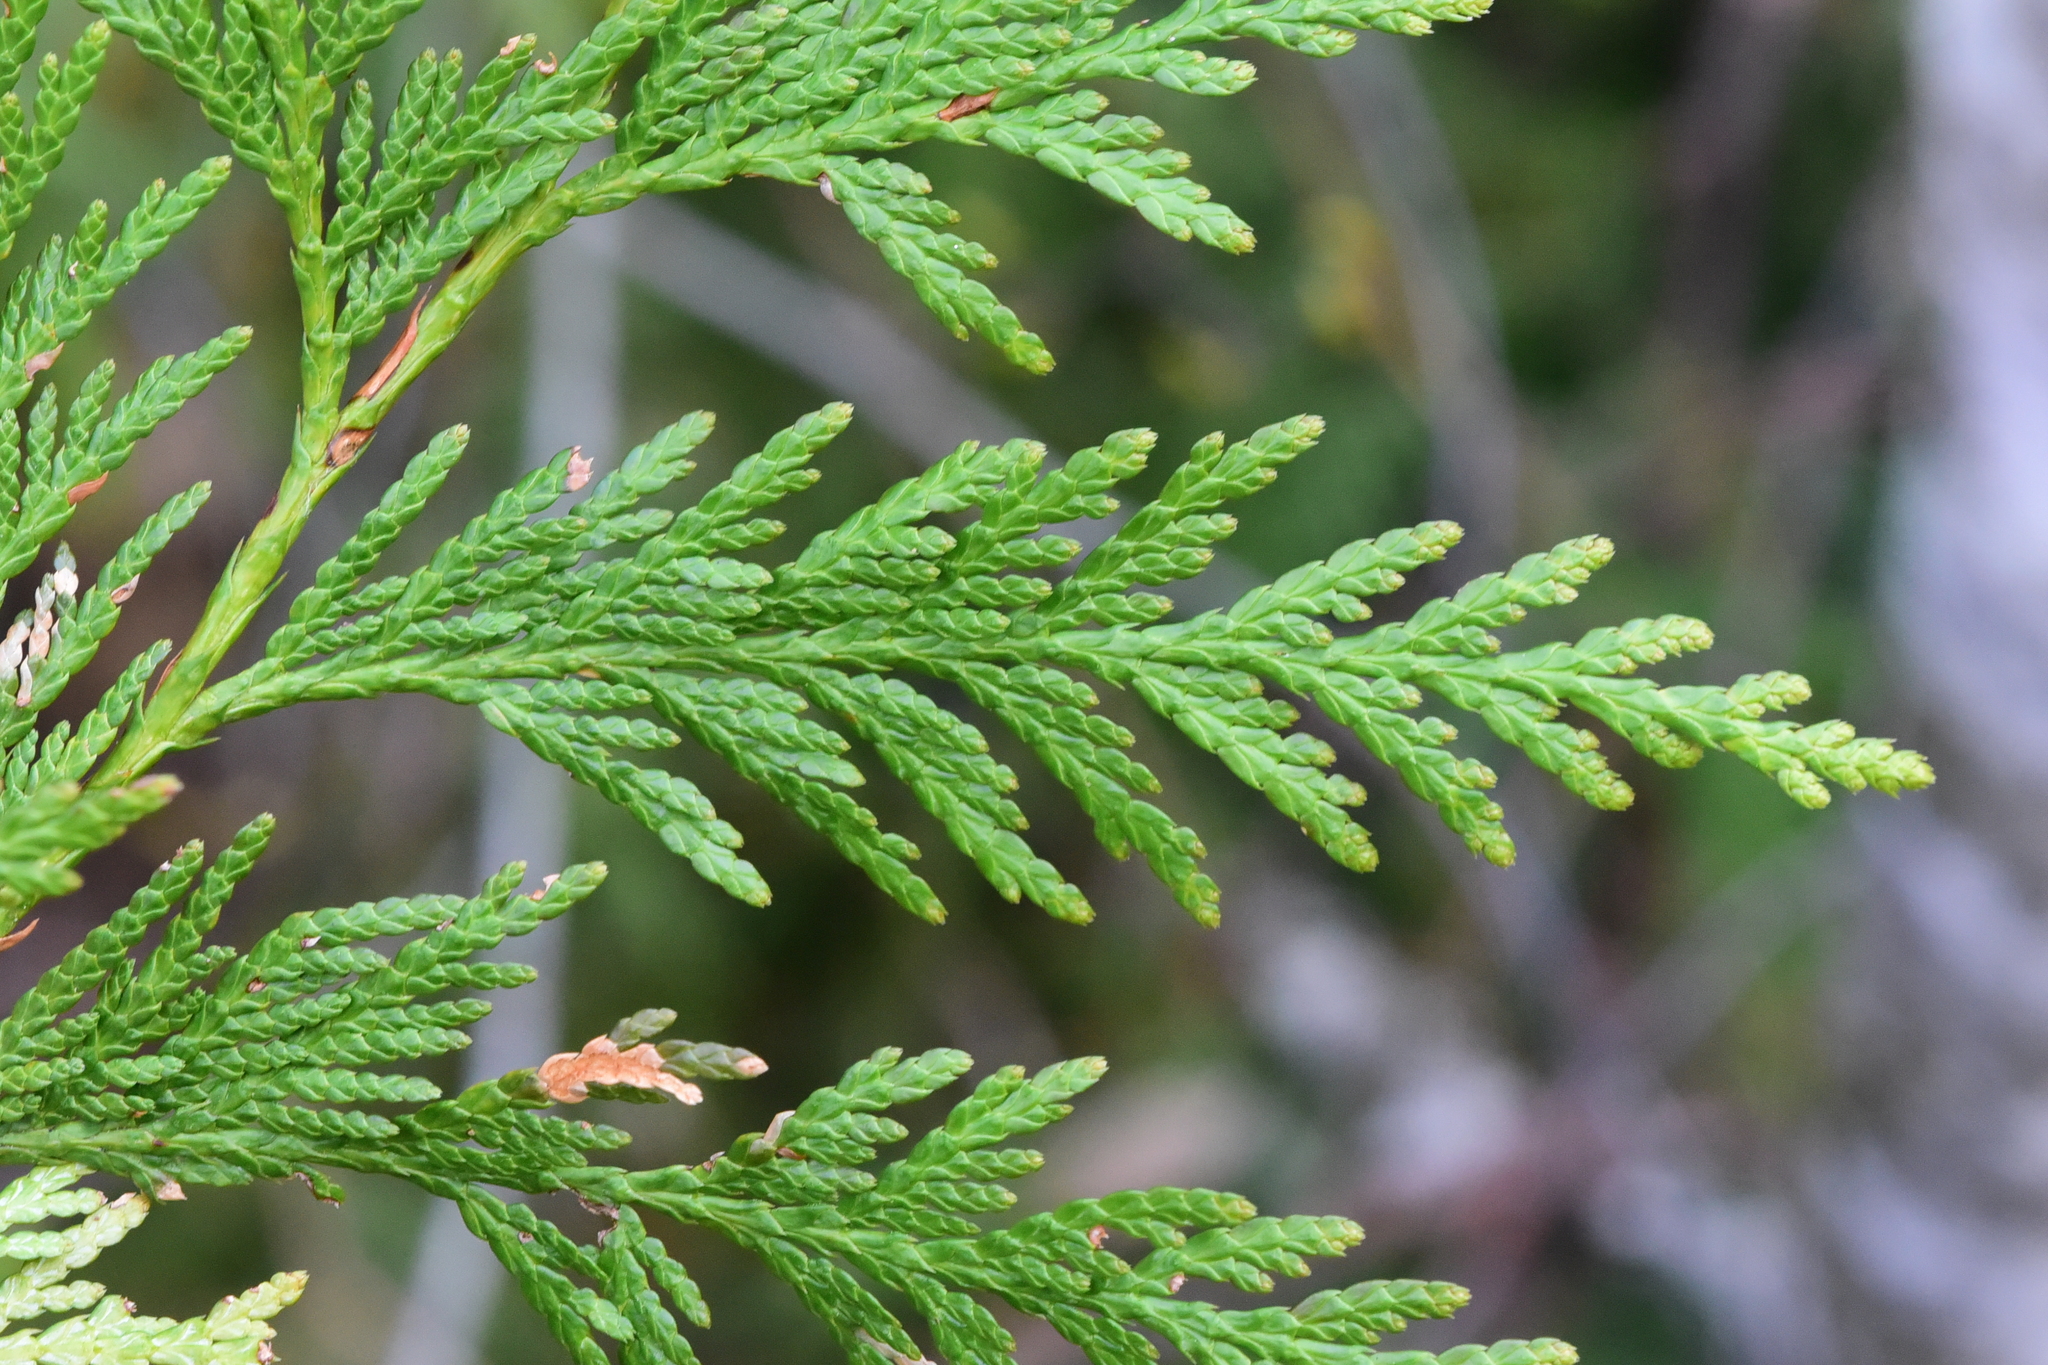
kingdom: Plantae
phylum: Tracheophyta
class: Pinopsida
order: Pinales
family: Cupressaceae
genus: Thuja
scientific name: Thuja plicata
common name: Western red-cedar
